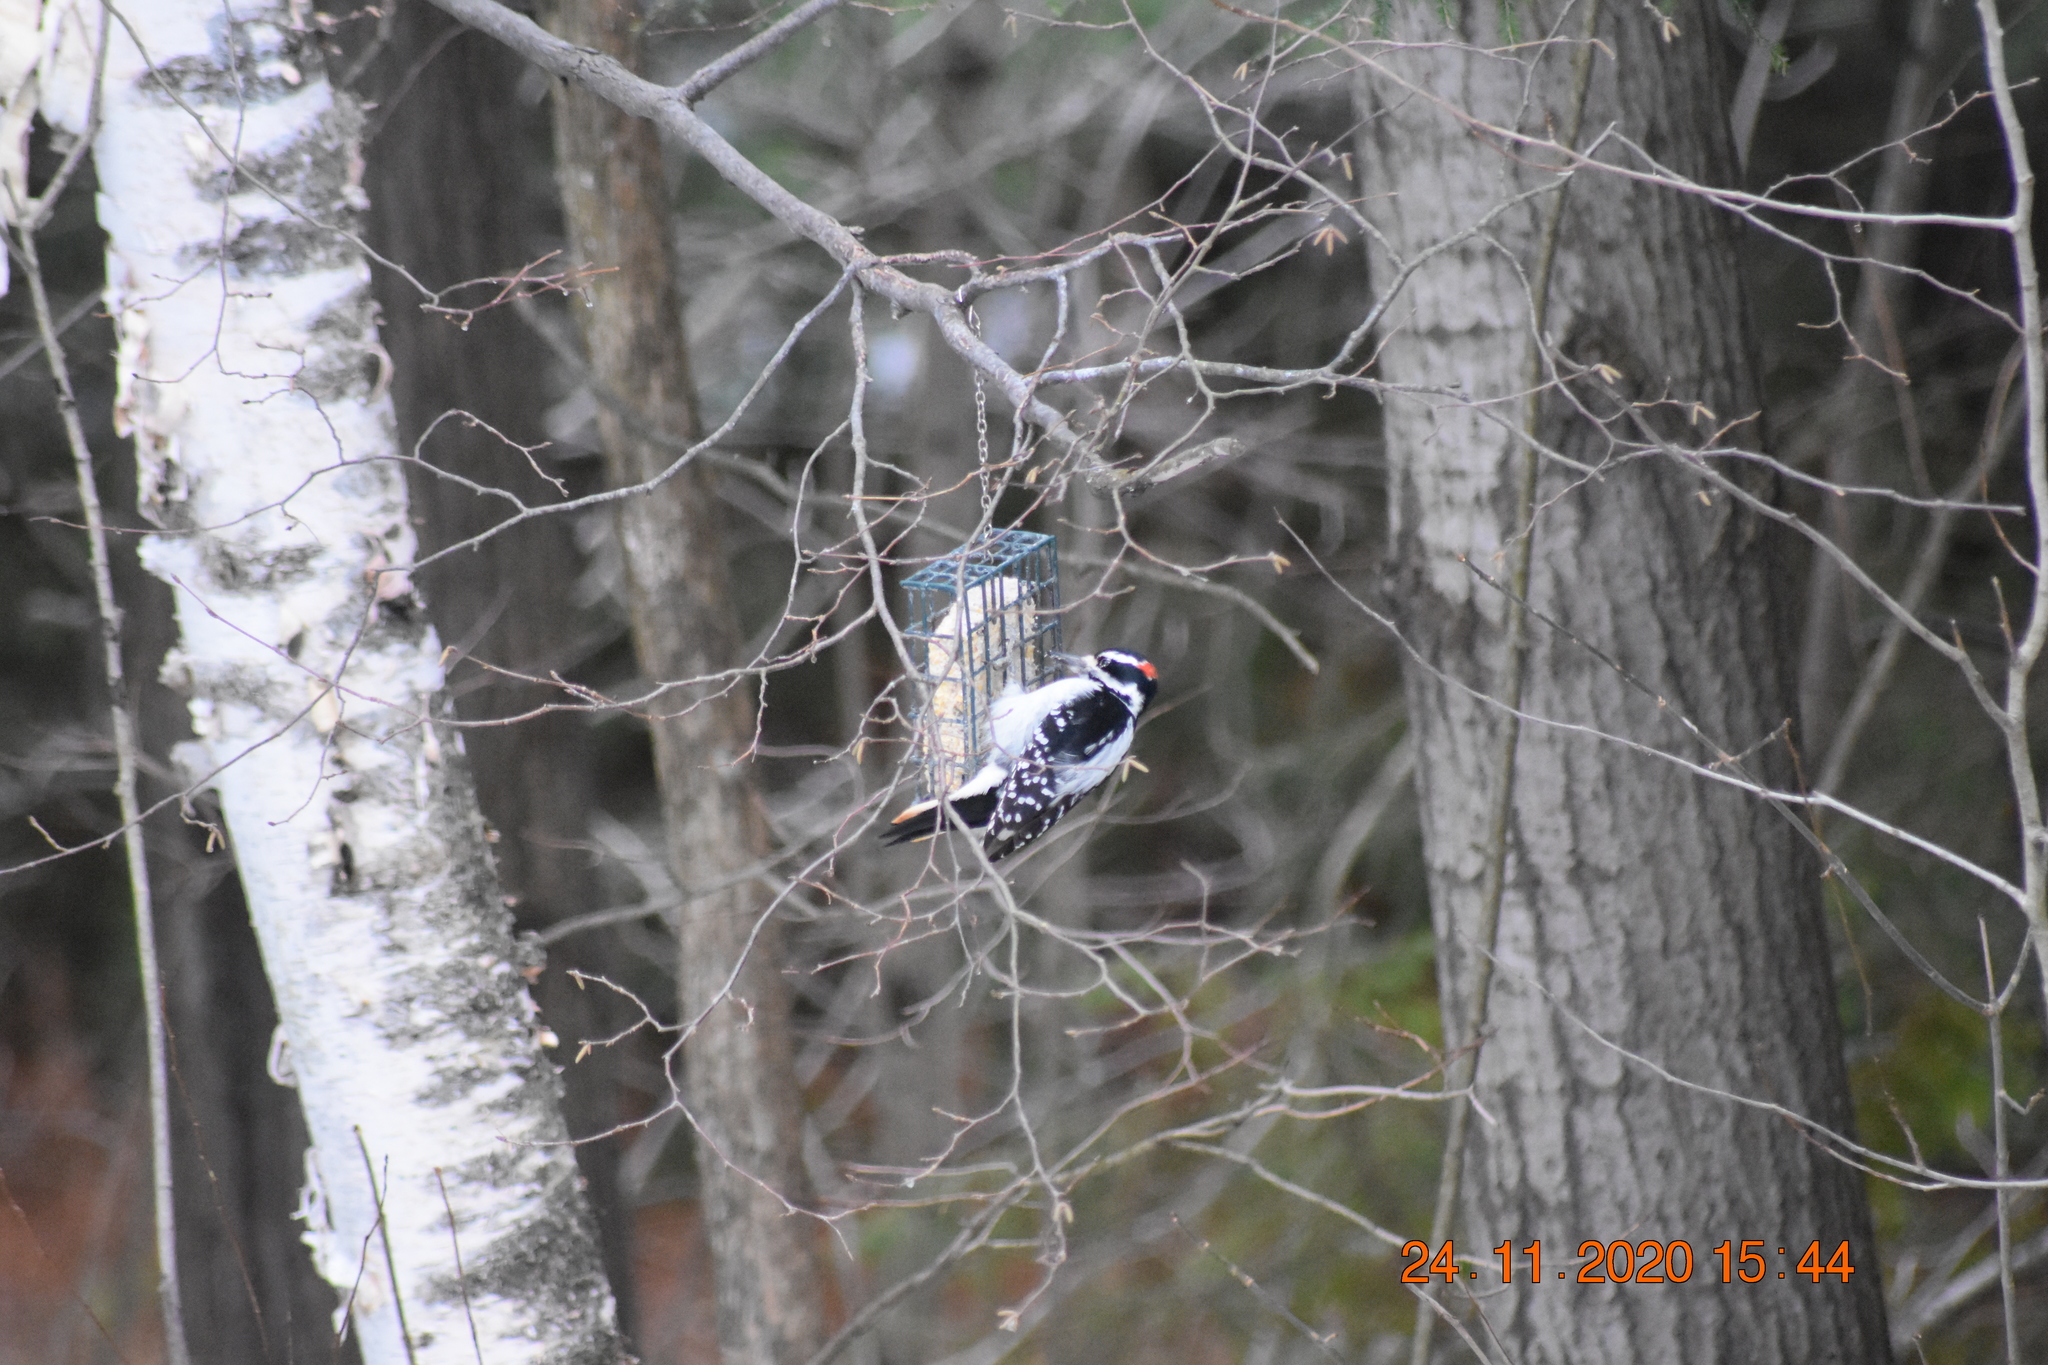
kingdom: Animalia
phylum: Chordata
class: Aves
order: Piciformes
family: Picidae
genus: Leuconotopicus
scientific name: Leuconotopicus villosus
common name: Hairy woodpecker
